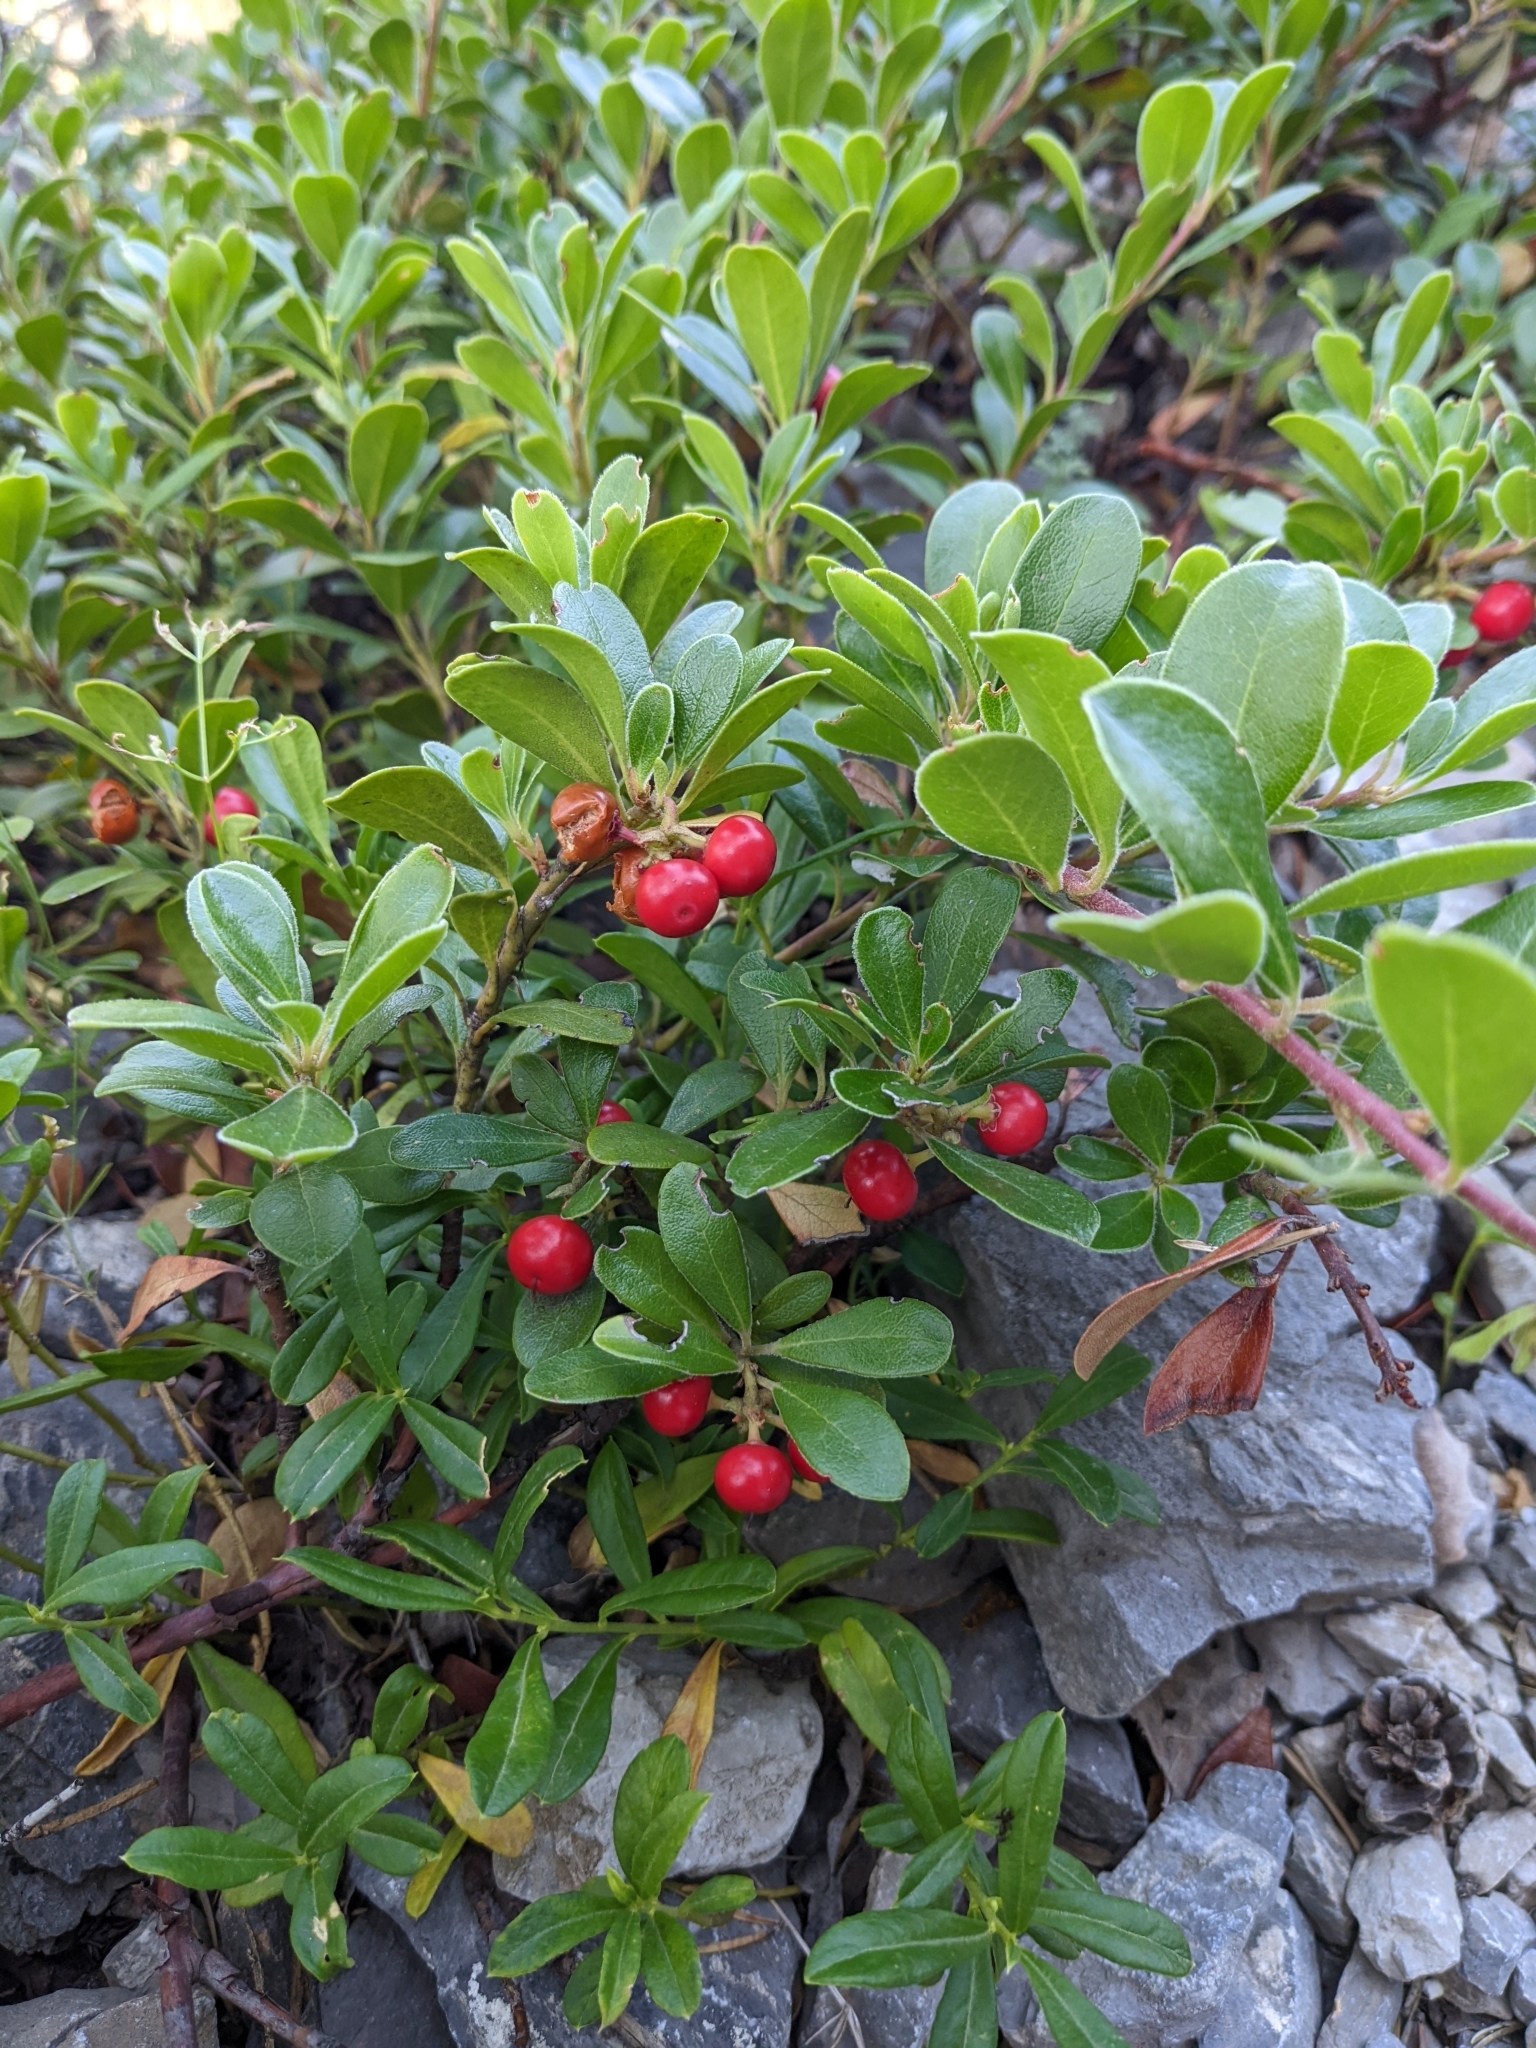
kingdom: Plantae
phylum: Tracheophyta
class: Magnoliopsida
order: Ericales
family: Ericaceae
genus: Arctostaphylos
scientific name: Arctostaphylos uva-ursi
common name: Bearberry
